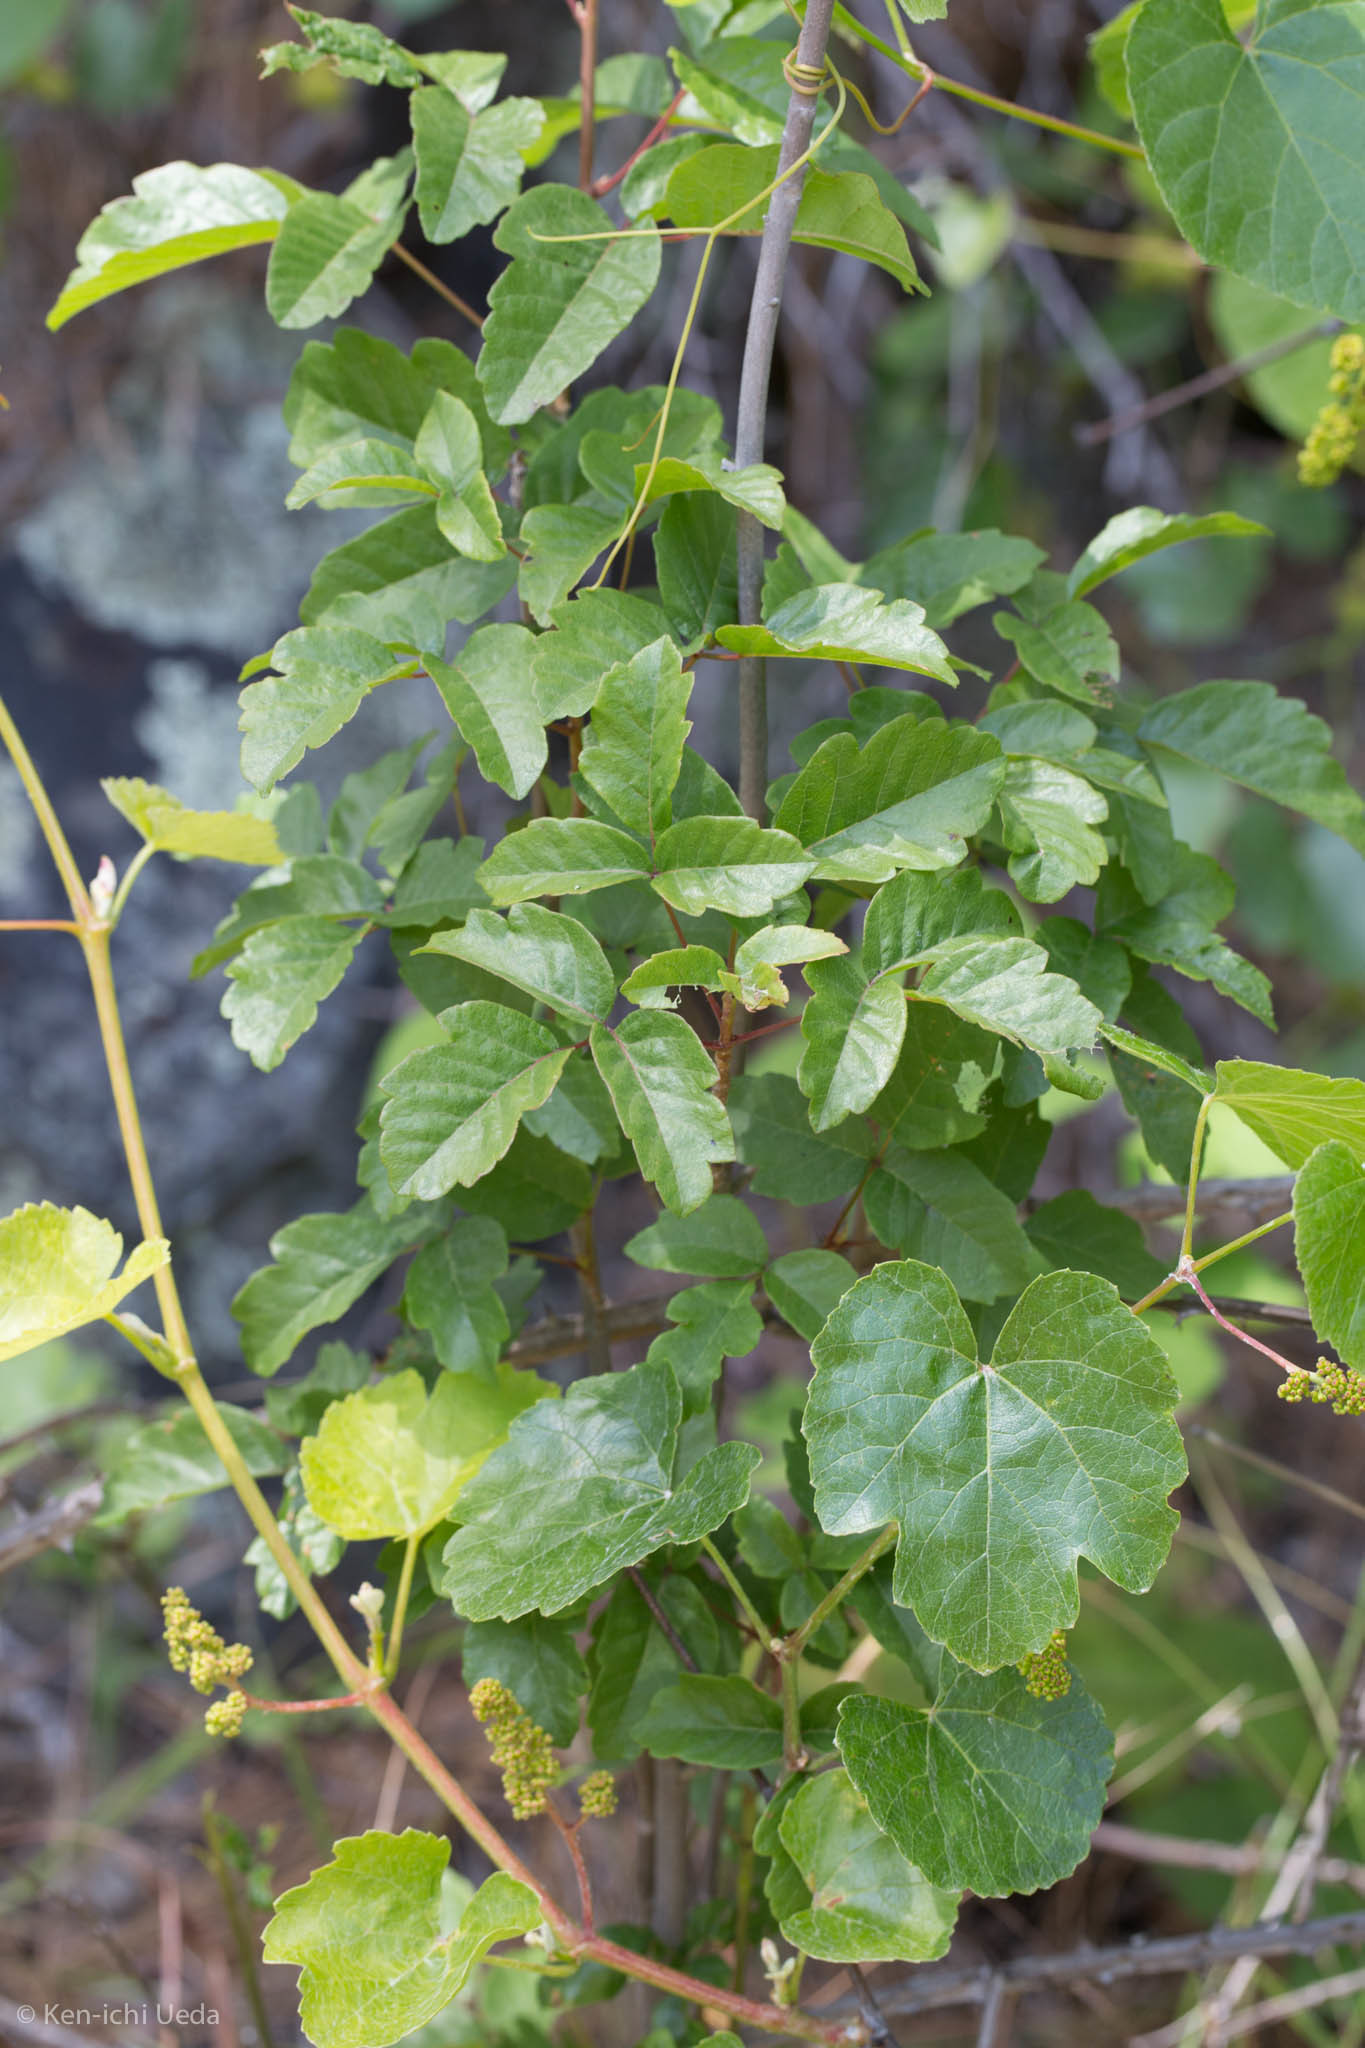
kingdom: Plantae
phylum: Tracheophyta
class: Magnoliopsida
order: Sapindales
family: Anacardiaceae
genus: Toxicodendron
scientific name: Toxicodendron diversilobum
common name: Pacific poison-oak
